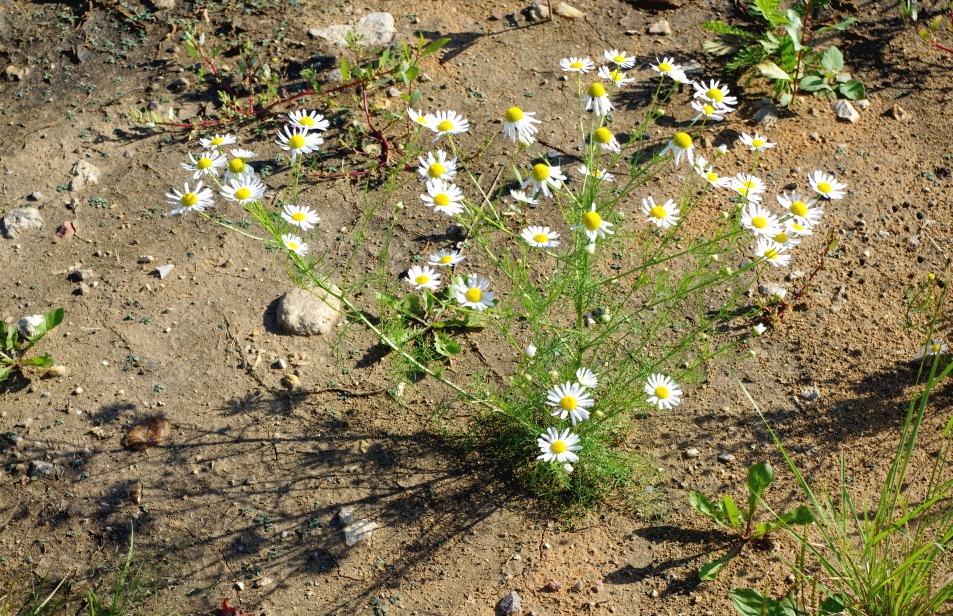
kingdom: Plantae
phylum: Tracheophyta
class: Magnoliopsida
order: Asterales
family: Asteraceae
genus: Tripleurospermum
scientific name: Tripleurospermum inodorum
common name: Scentless mayweed
